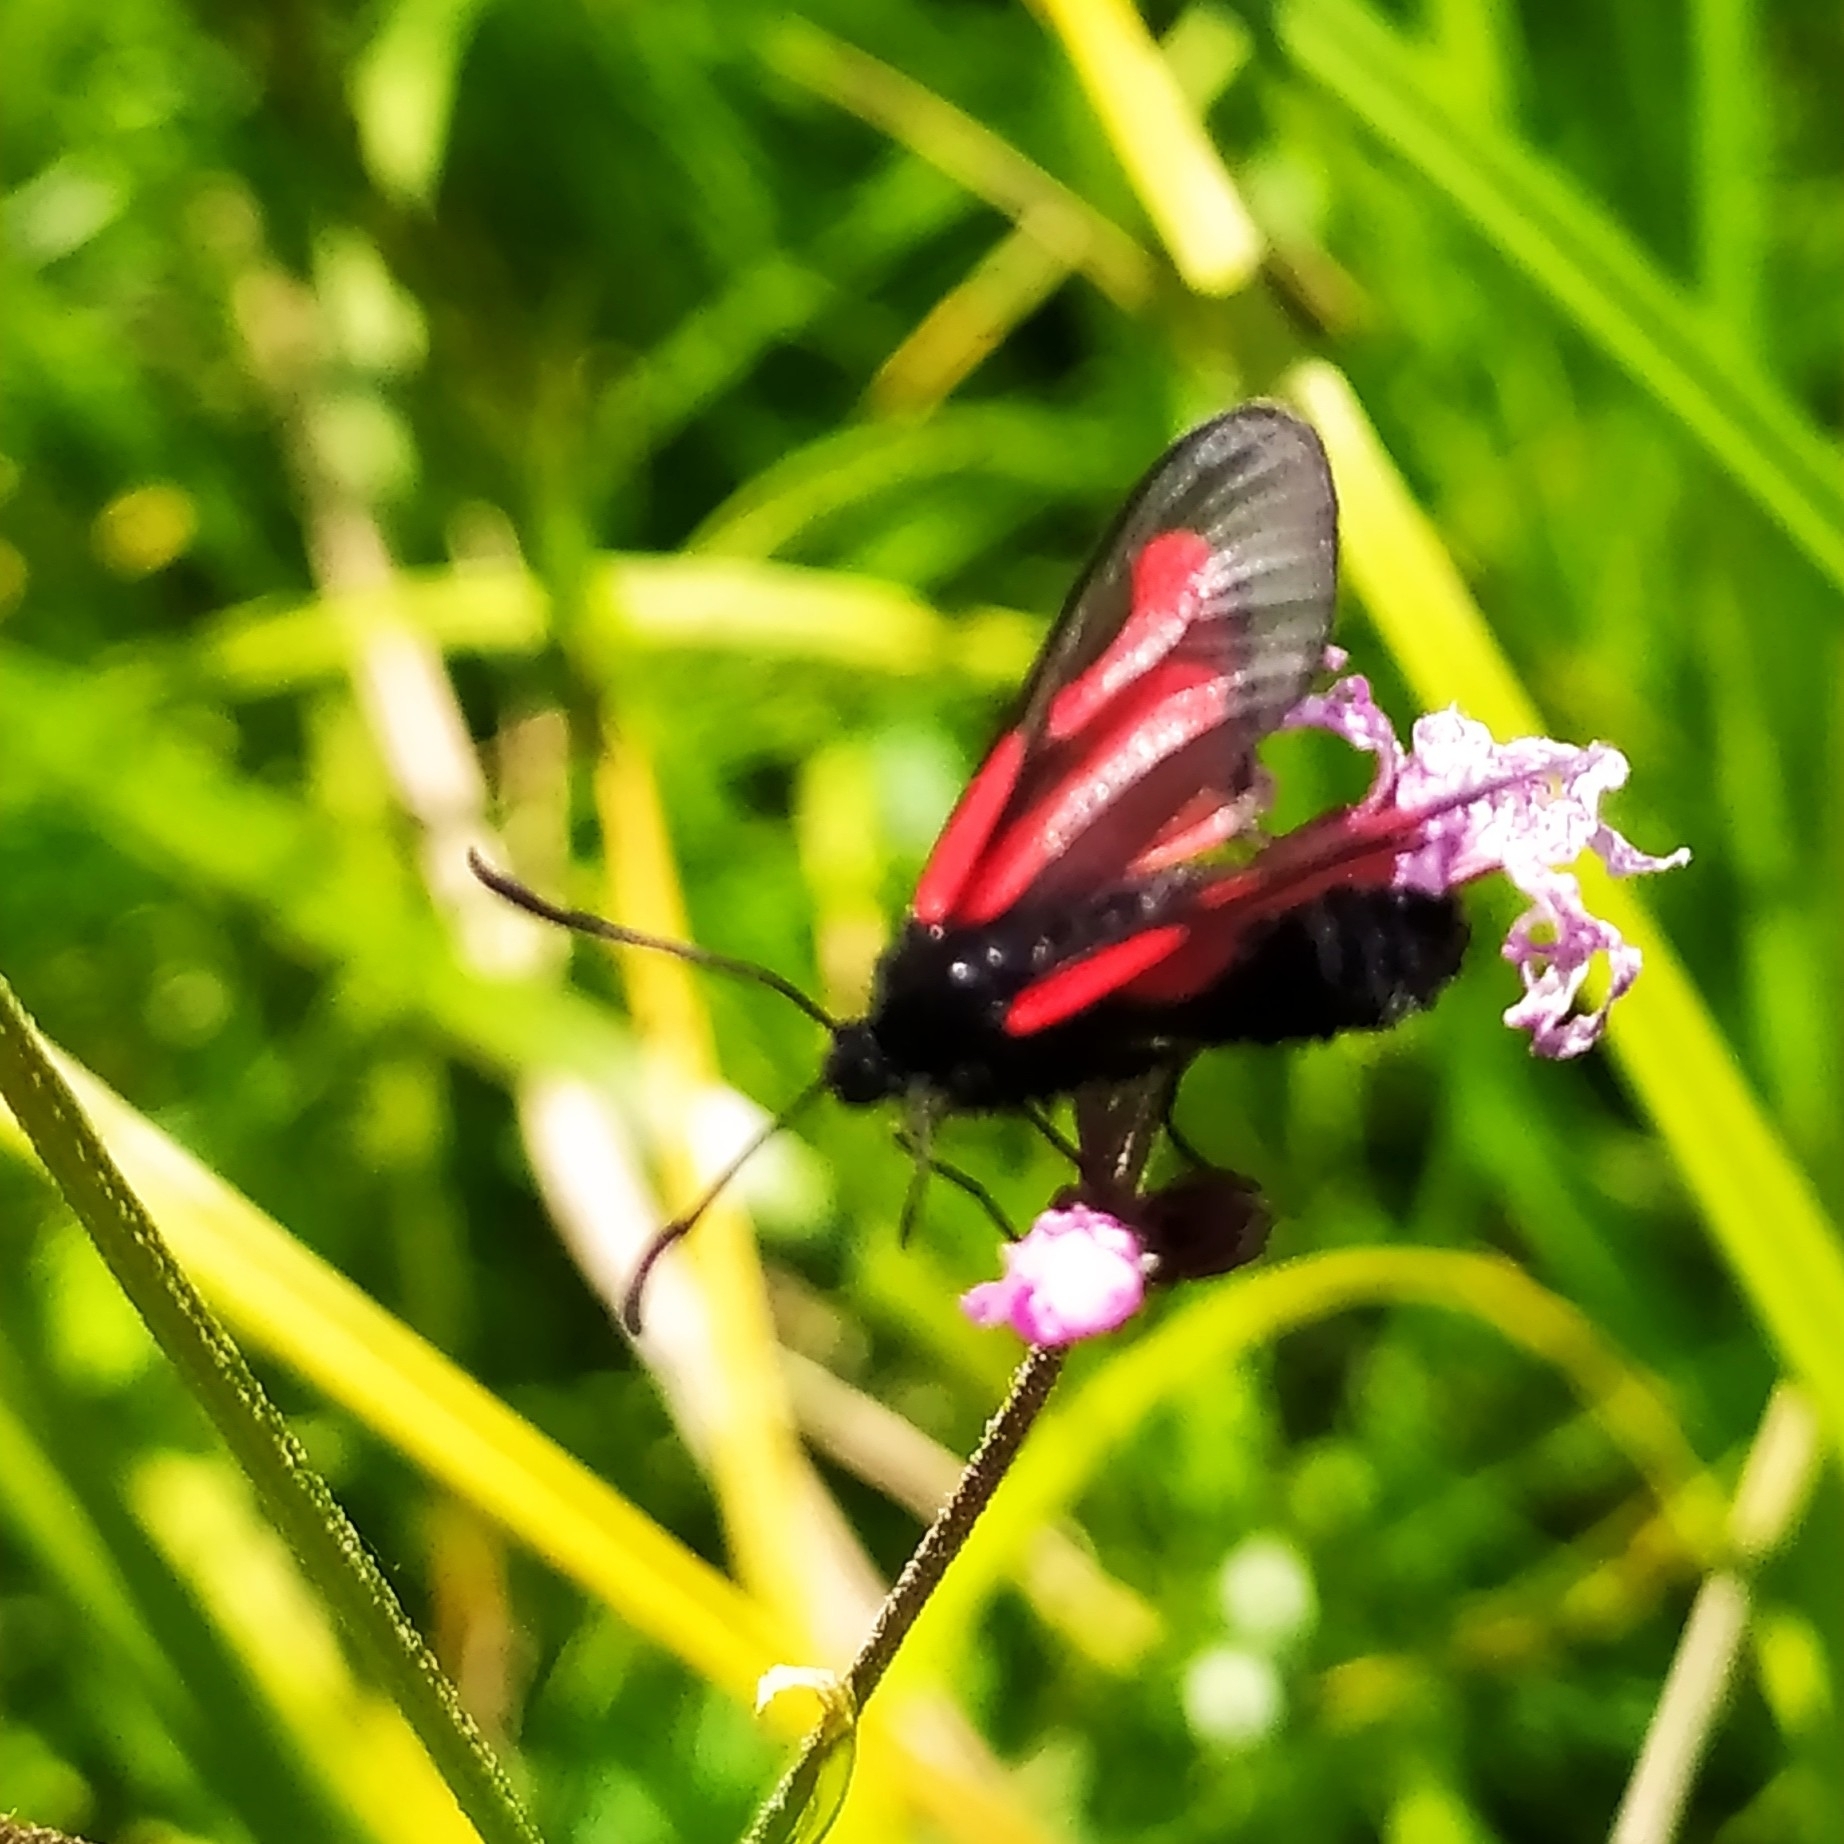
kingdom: Animalia
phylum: Arthropoda
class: Insecta
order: Lepidoptera
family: Zygaenidae
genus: Zygaena
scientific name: Zygaena osterodensis
